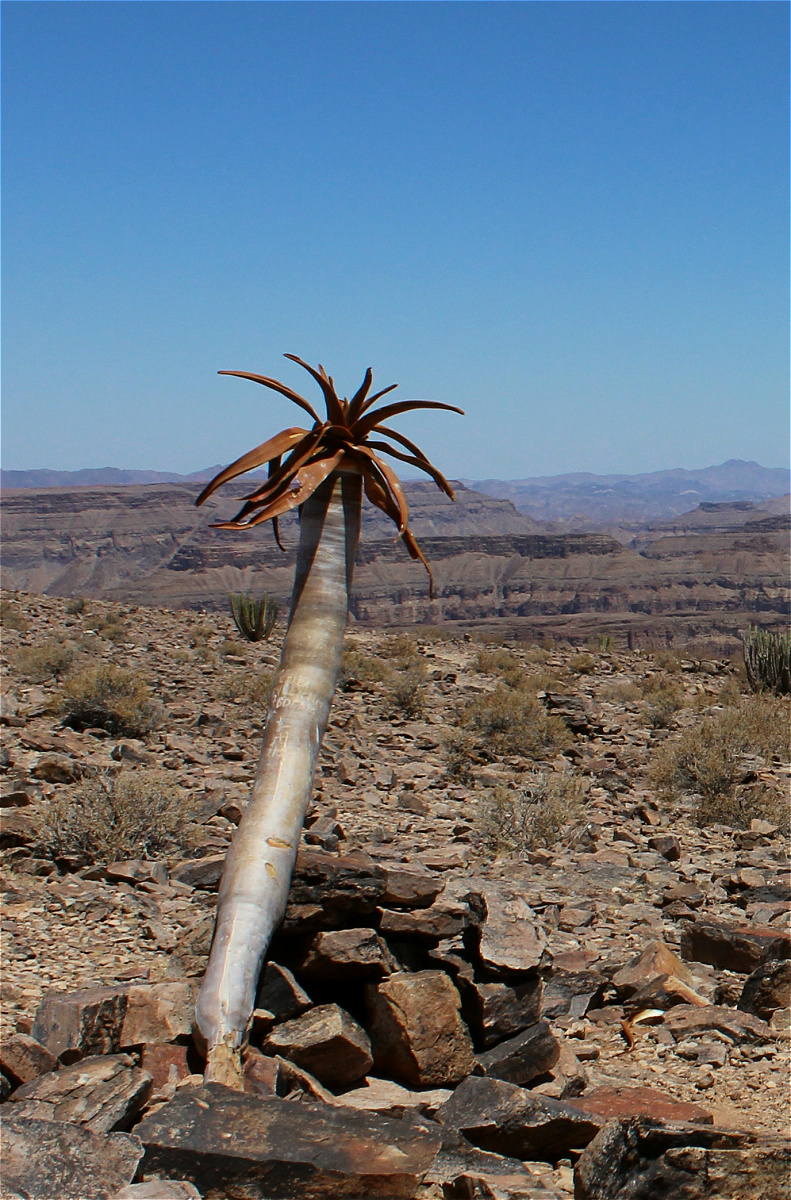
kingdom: Plantae
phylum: Tracheophyta
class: Liliopsida
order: Asparagales
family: Asphodelaceae
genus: Aloidendron
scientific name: Aloidendron dichotomum
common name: Quiver tree
